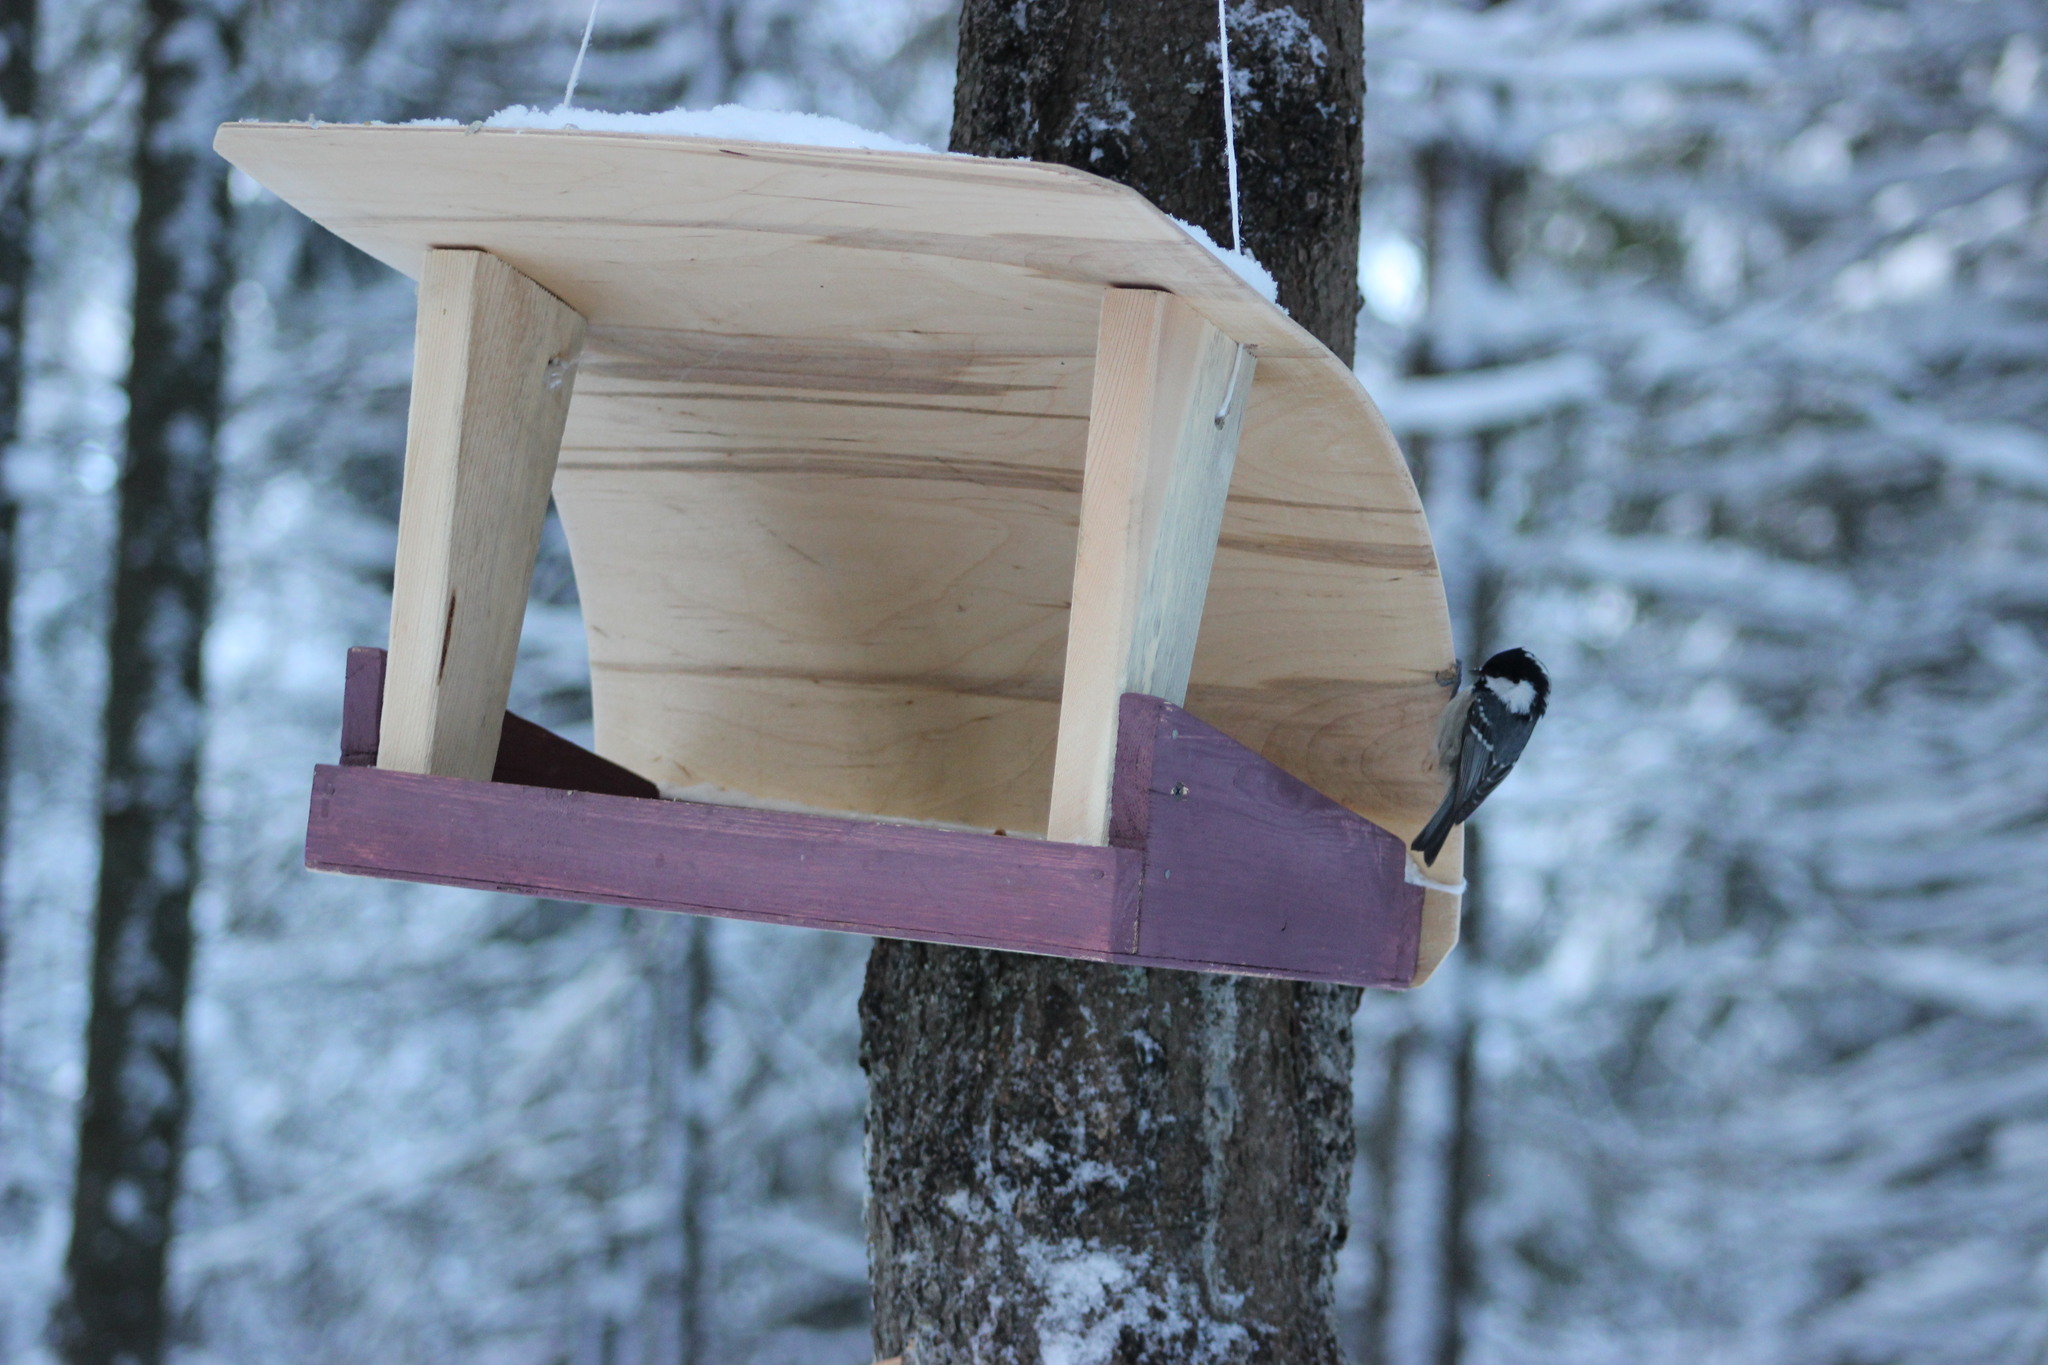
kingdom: Animalia
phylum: Chordata
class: Aves
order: Passeriformes
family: Paridae
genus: Periparus
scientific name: Periparus ater
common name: Coal tit
